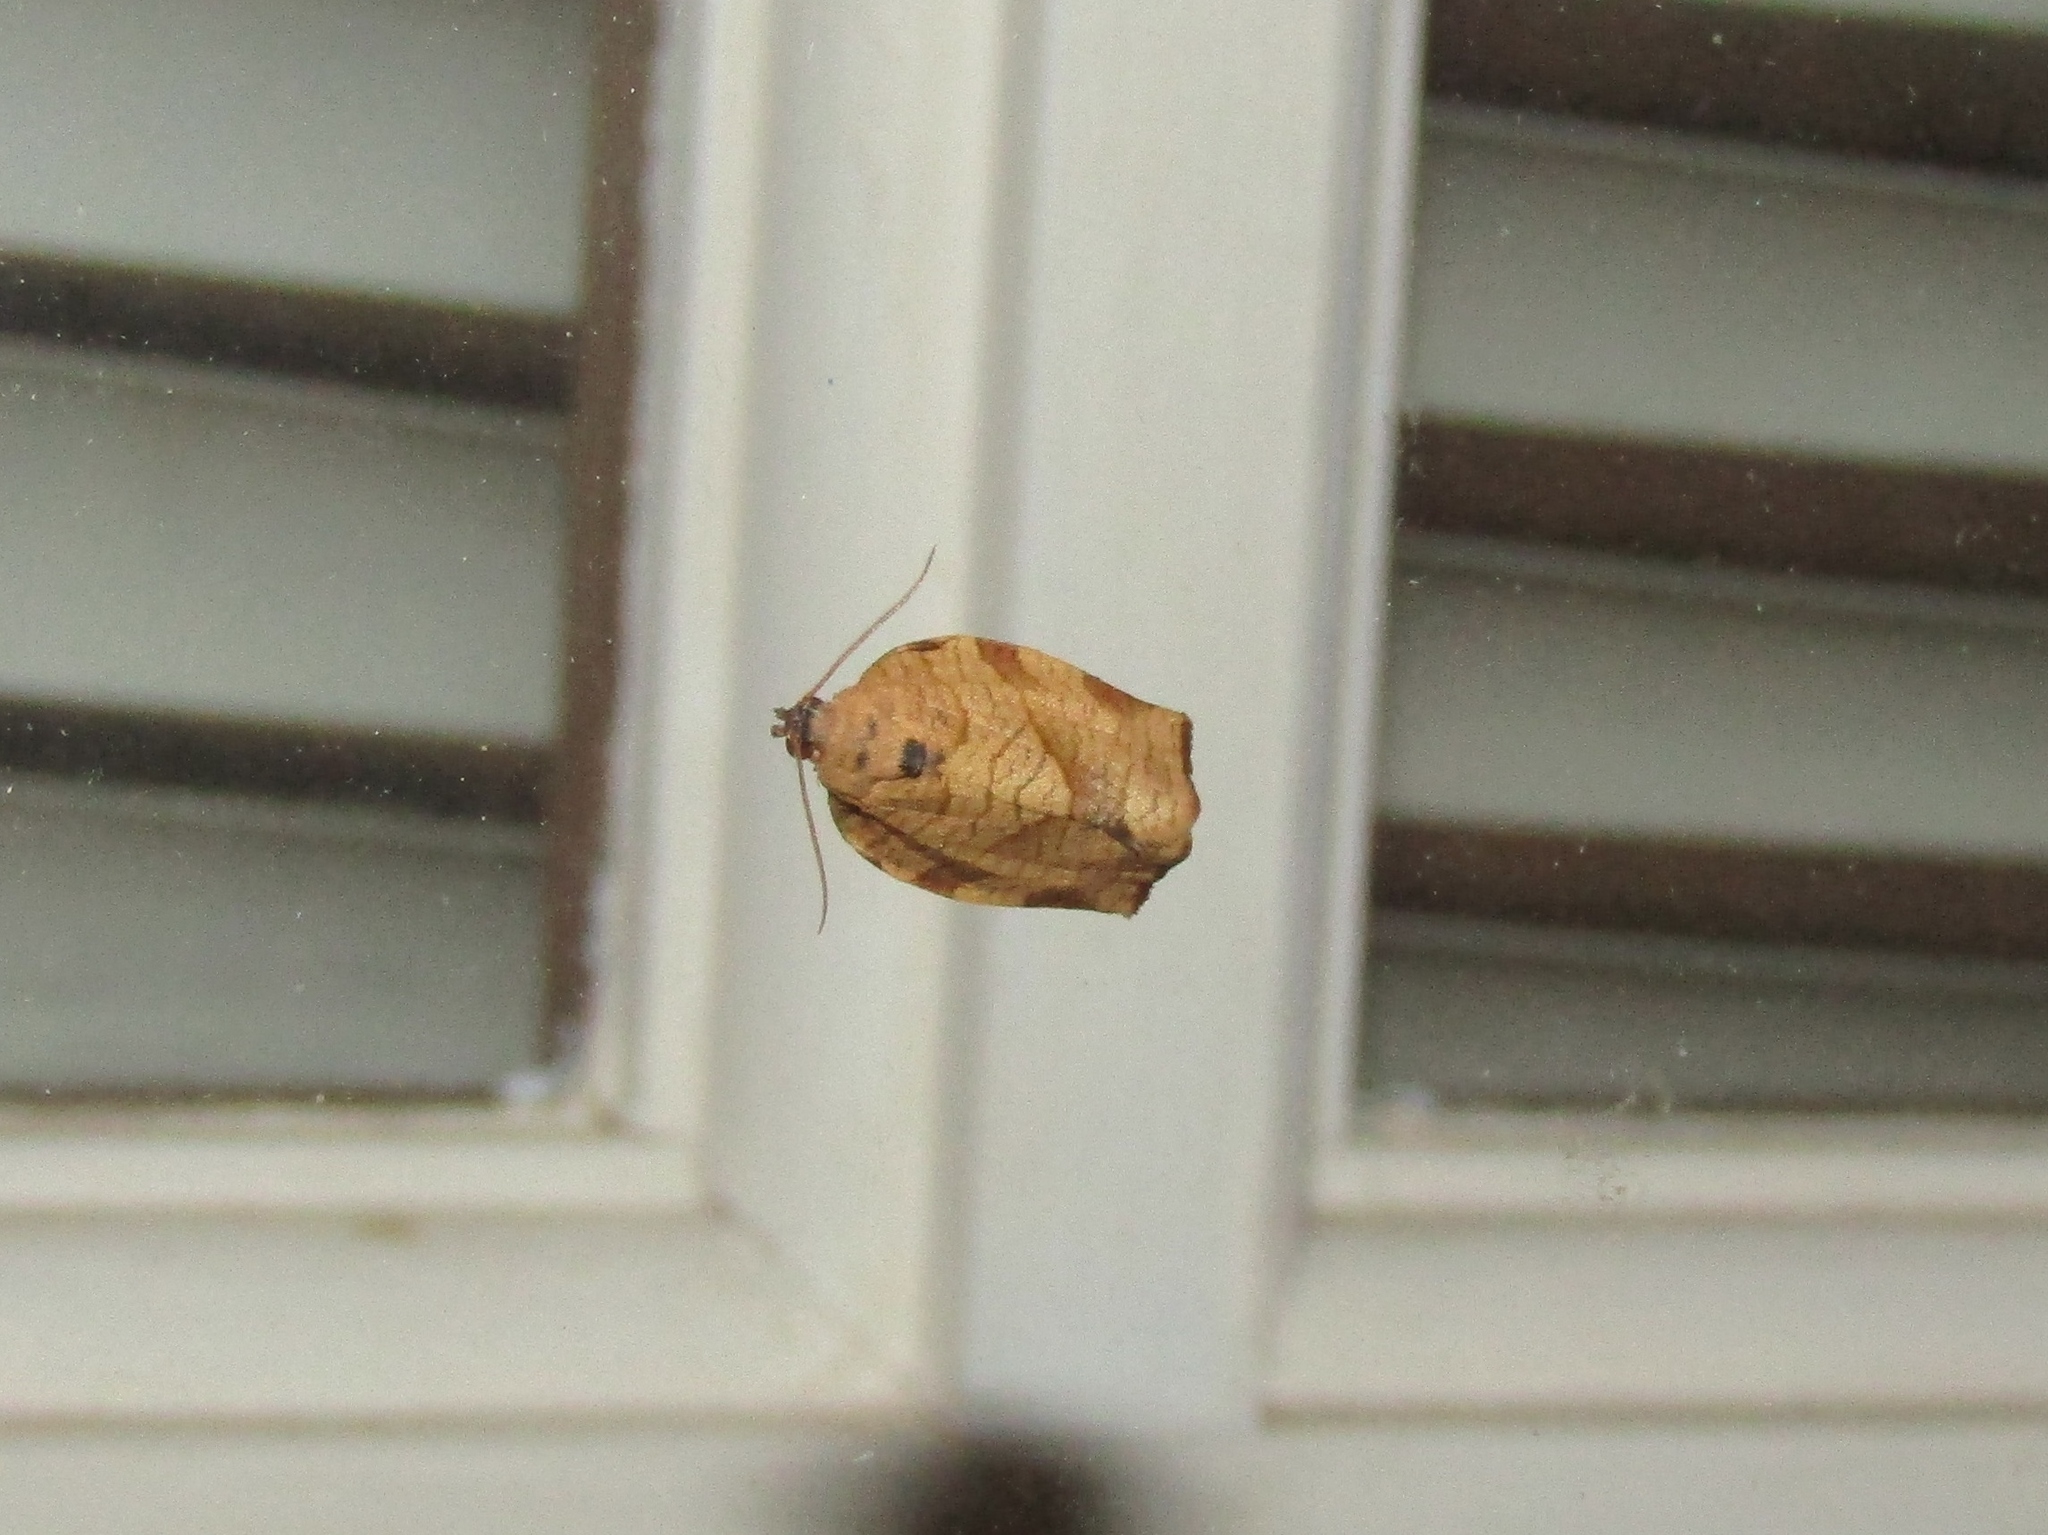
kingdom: Animalia
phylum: Arthropoda
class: Insecta
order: Lepidoptera
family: Tortricidae
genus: Choristoneura
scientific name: Choristoneura rosaceana
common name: Oblique-banded leafroller moth
